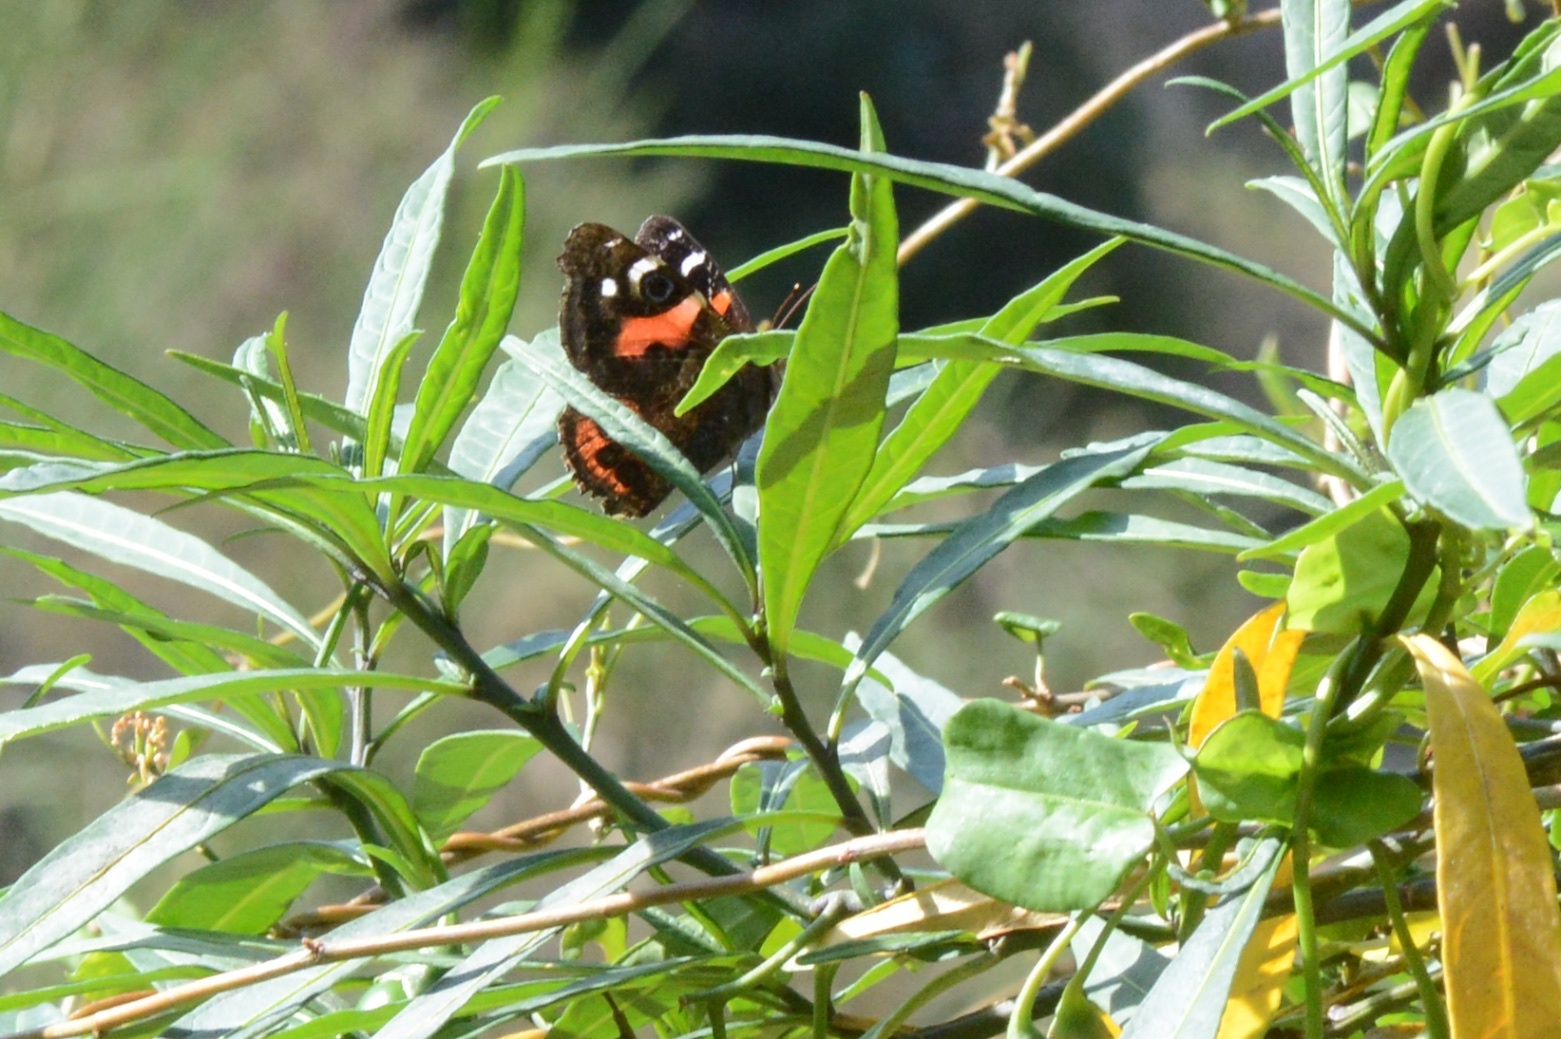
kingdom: Animalia
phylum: Arthropoda
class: Insecta
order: Lepidoptera
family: Nymphalidae
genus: Vanessa
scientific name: Vanessa gonerilla
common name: New zealand red admiral
